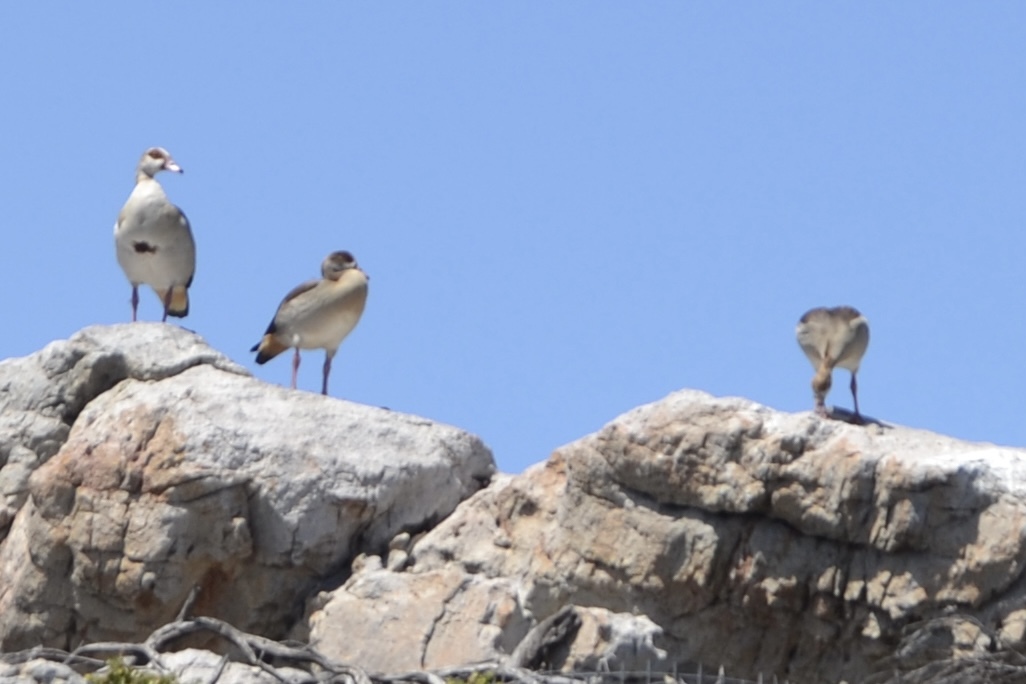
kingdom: Animalia
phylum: Chordata
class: Aves
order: Anseriformes
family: Anatidae
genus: Alopochen
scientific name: Alopochen aegyptiaca
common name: Egyptian goose
